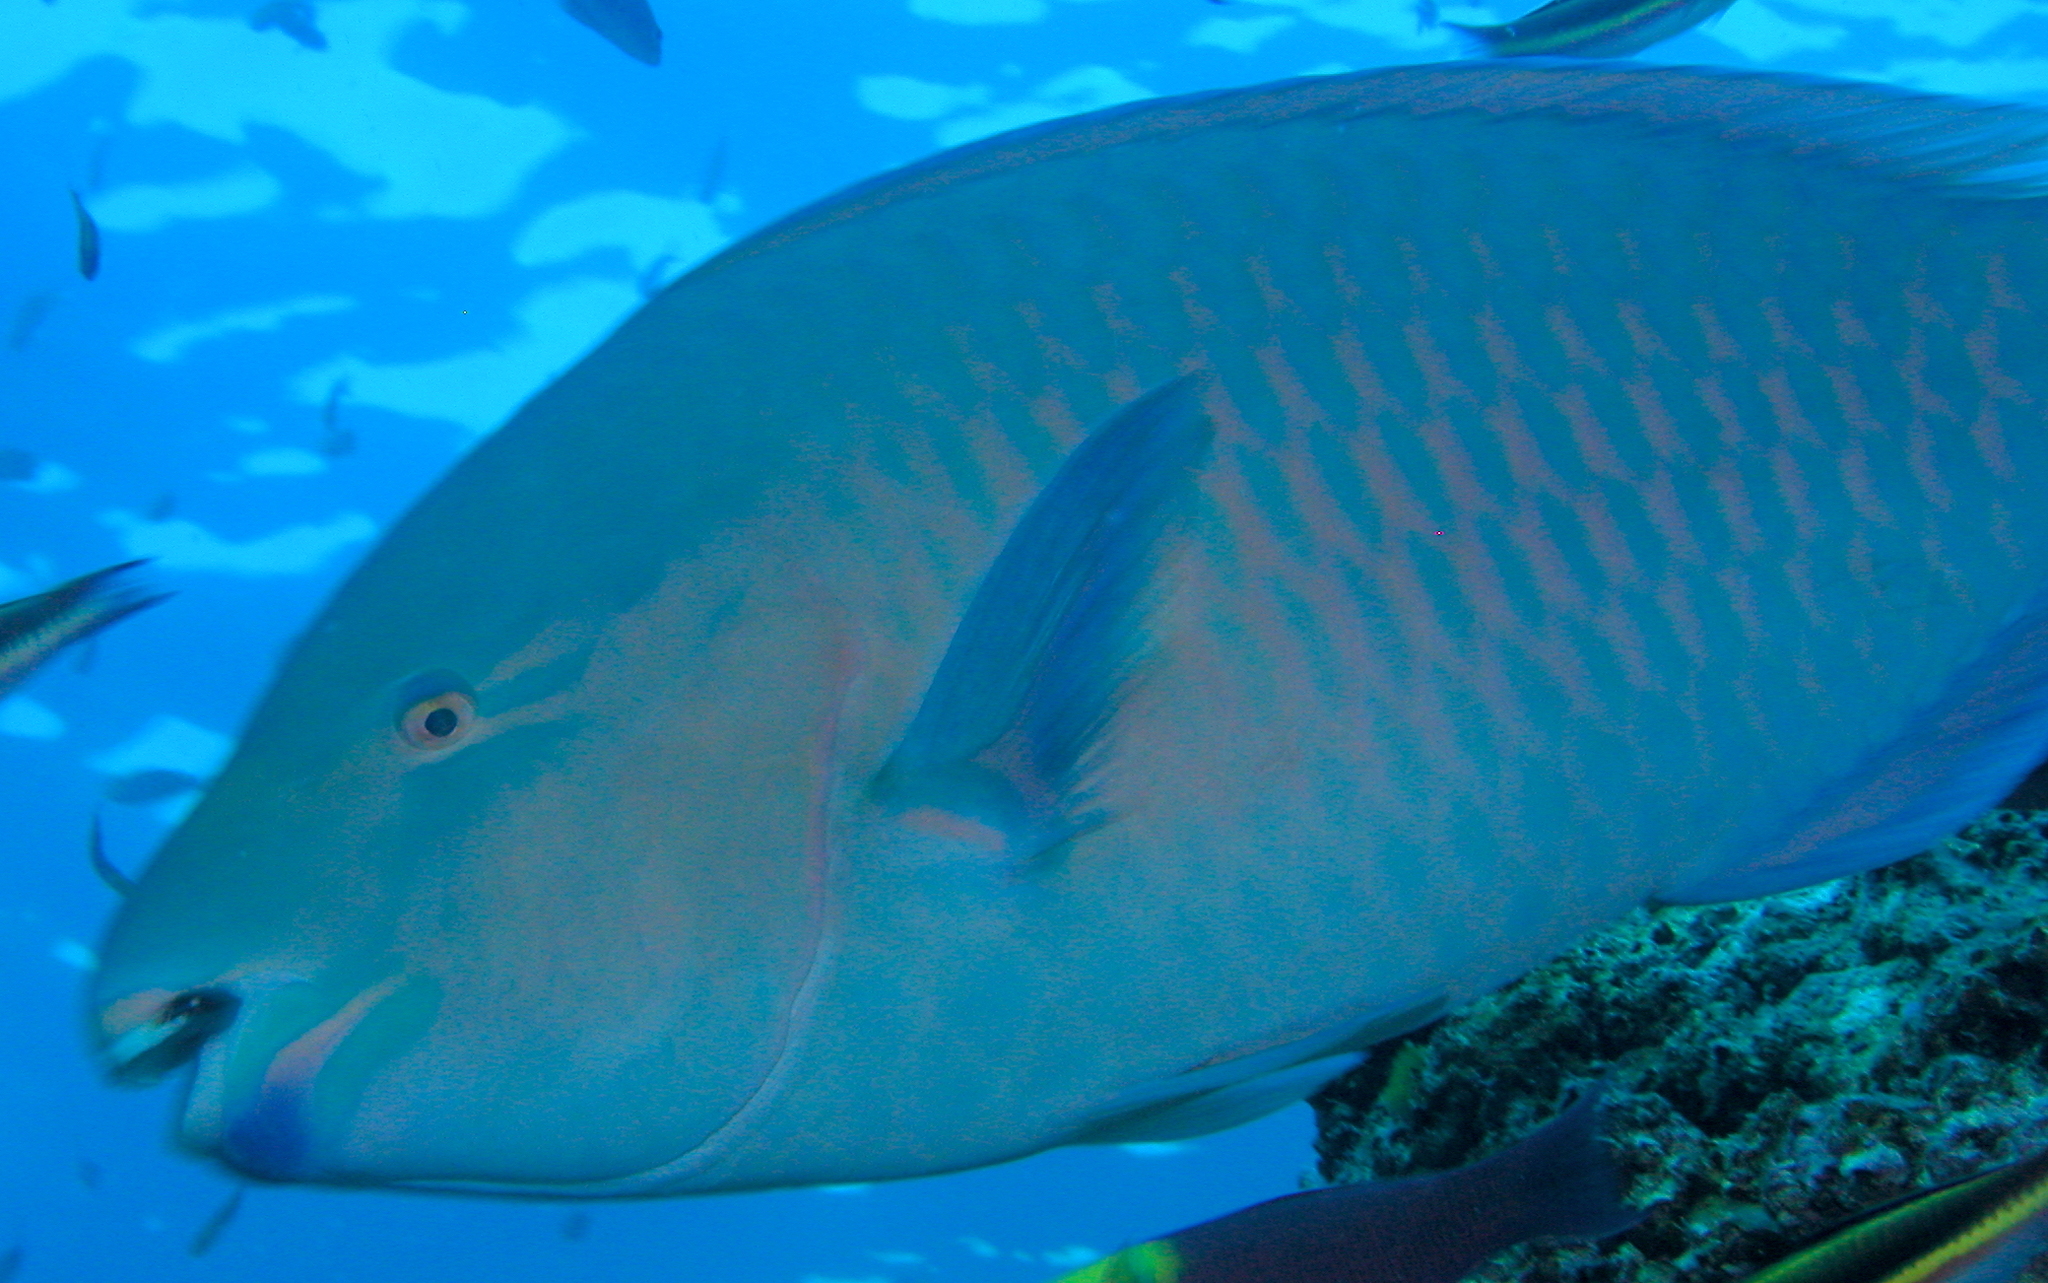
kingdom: Animalia
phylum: Chordata
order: Perciformes
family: Scaridae
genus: Scarus
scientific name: Scarus ghobban
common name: Blue-barred parrotfish
